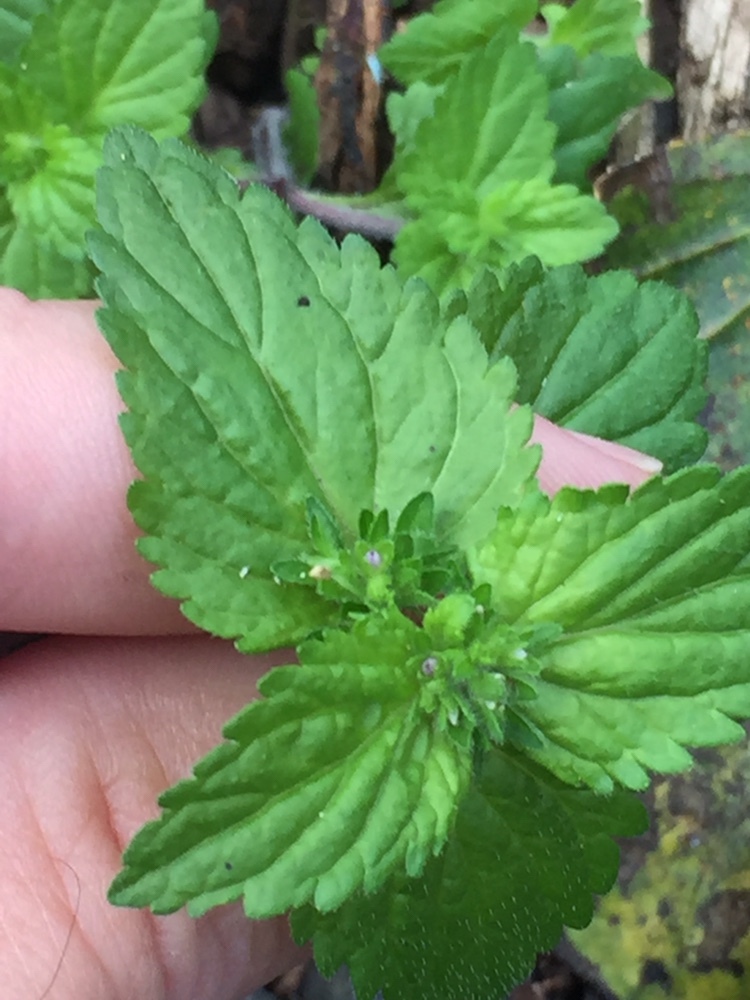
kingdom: Plantae
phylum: Tracheophyta
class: Magnoliopsida
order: Lamiales
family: Plantaginaceae
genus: Veronica
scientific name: Veronica javanica
